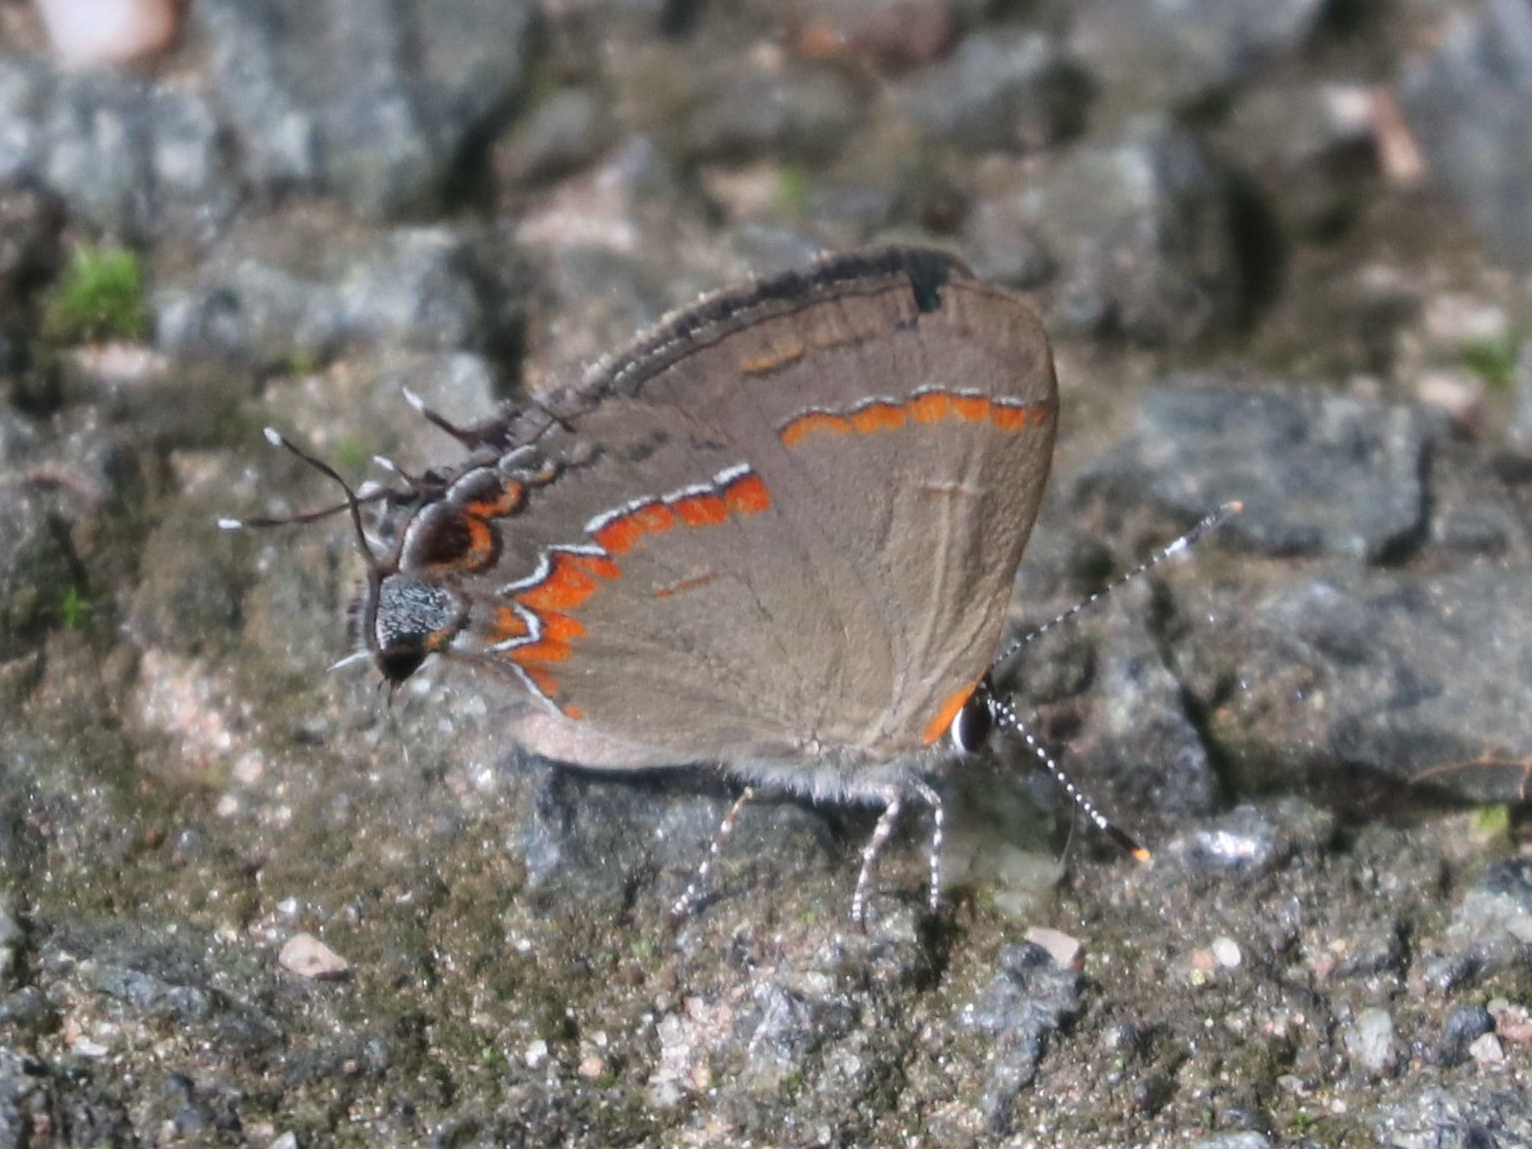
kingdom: Animalia
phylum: Arthropoda
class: Insecta
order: Lepidoptera
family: Lycaenidae
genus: Calycopis
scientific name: Calycopis cecrops
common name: Red-banded hairstreak
